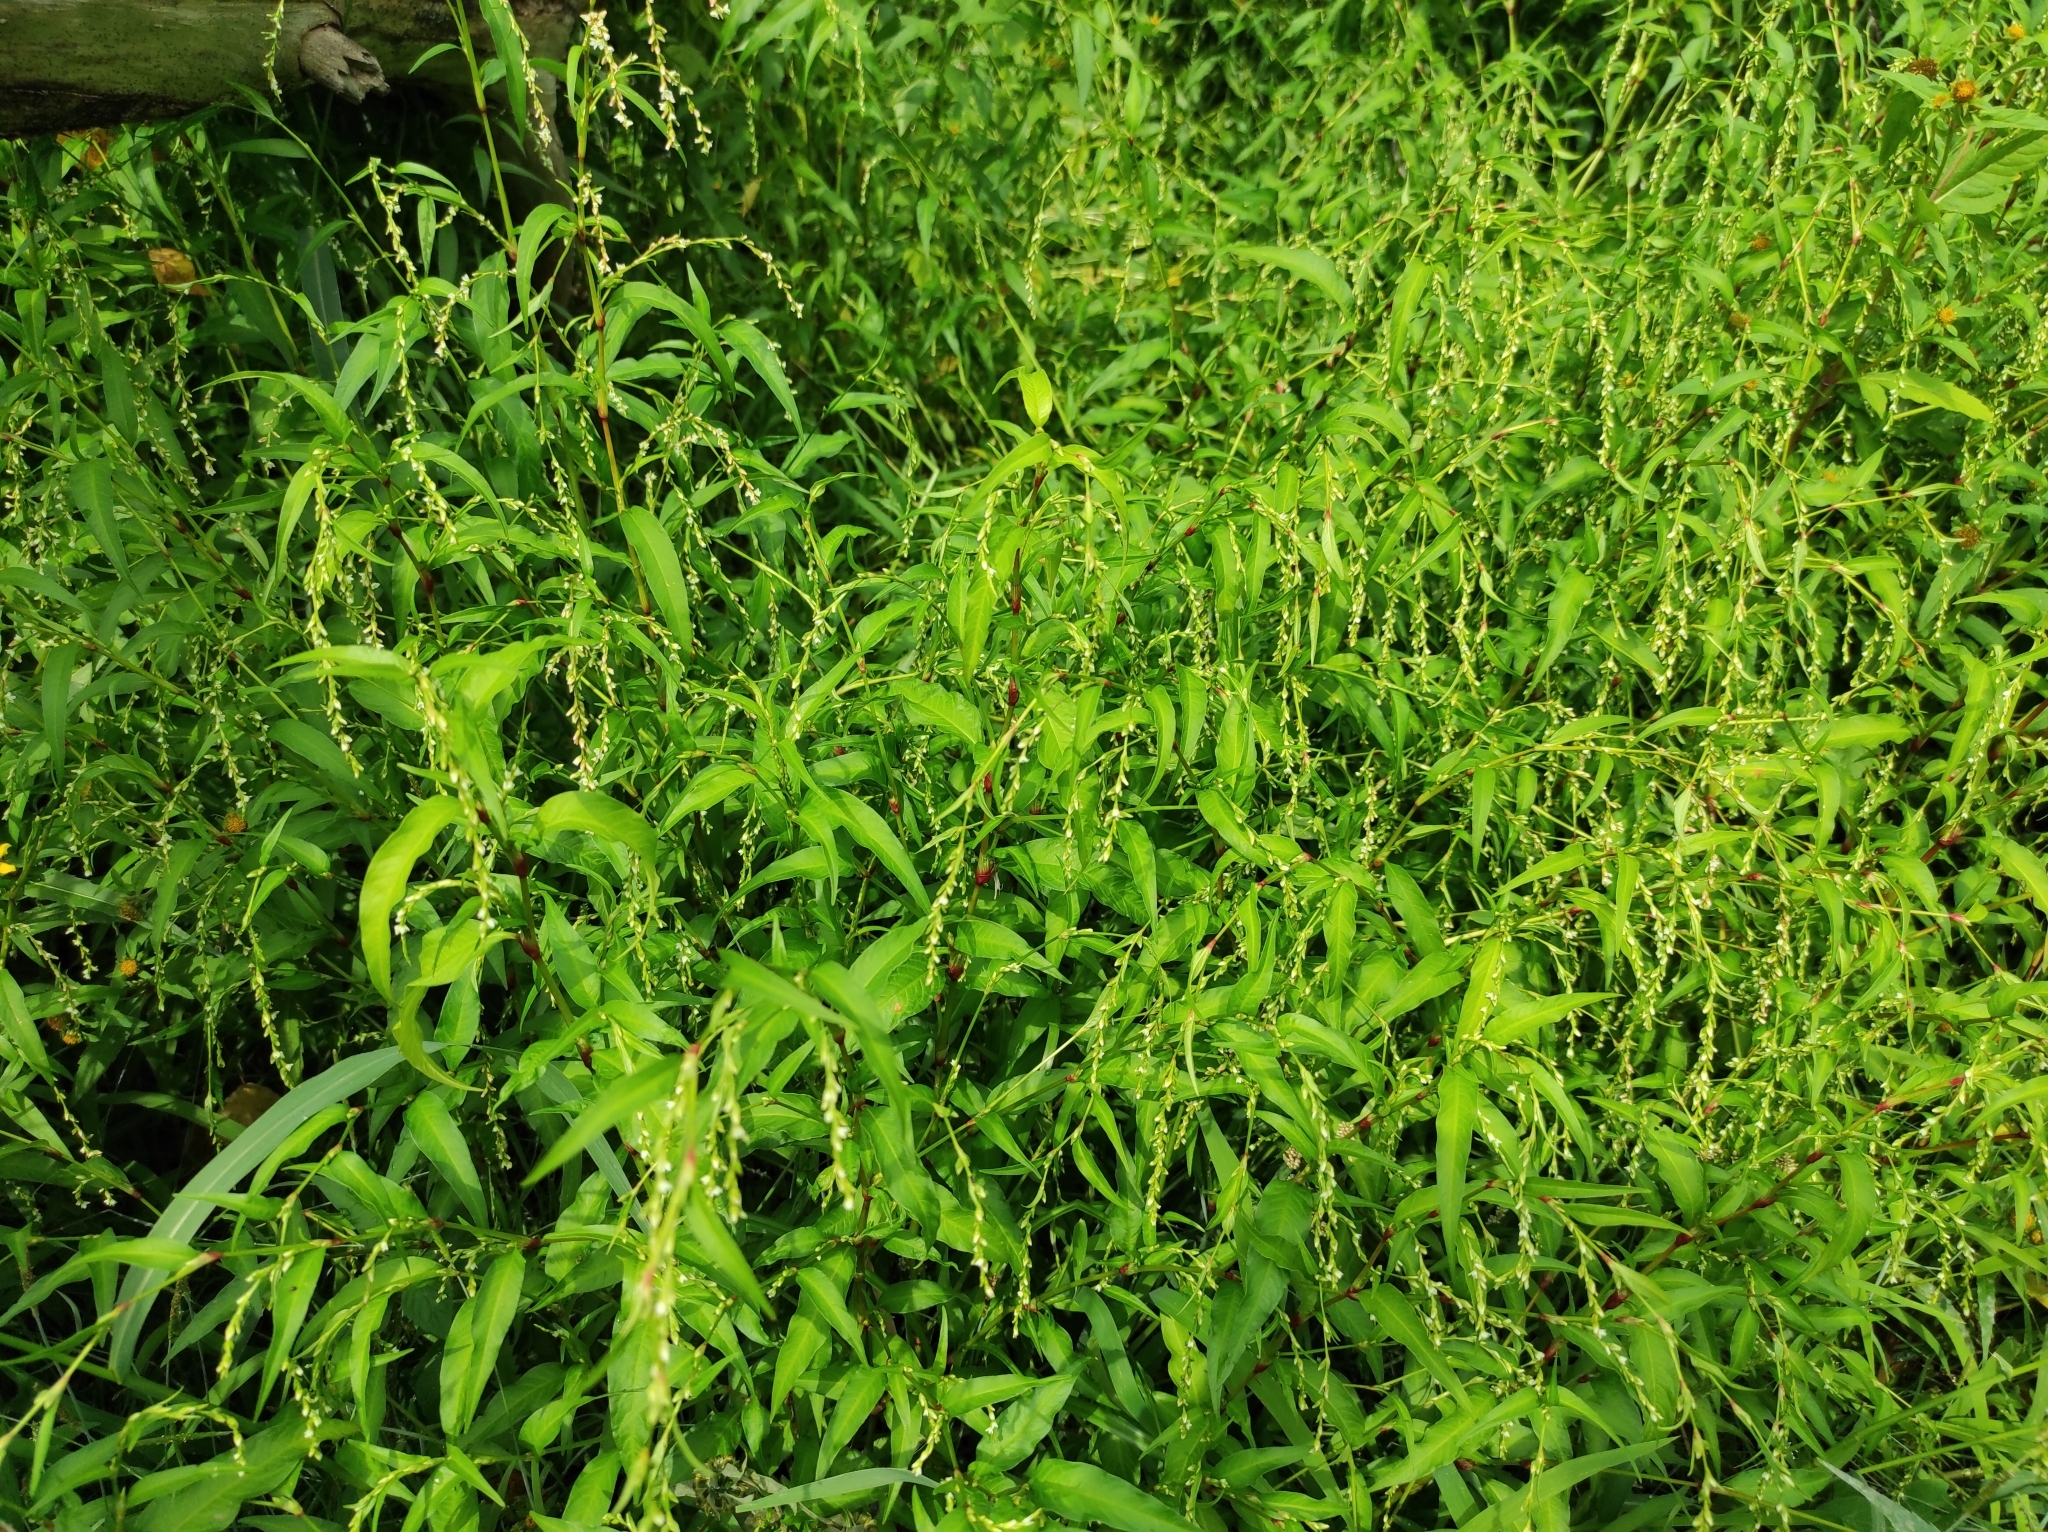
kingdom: Plantae
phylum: Tracheophyta
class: Magnoliopsida
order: Caryophyllales
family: Polygonaceae
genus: Persicaria
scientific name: Persicaria hydropiper
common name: Water-pepper
